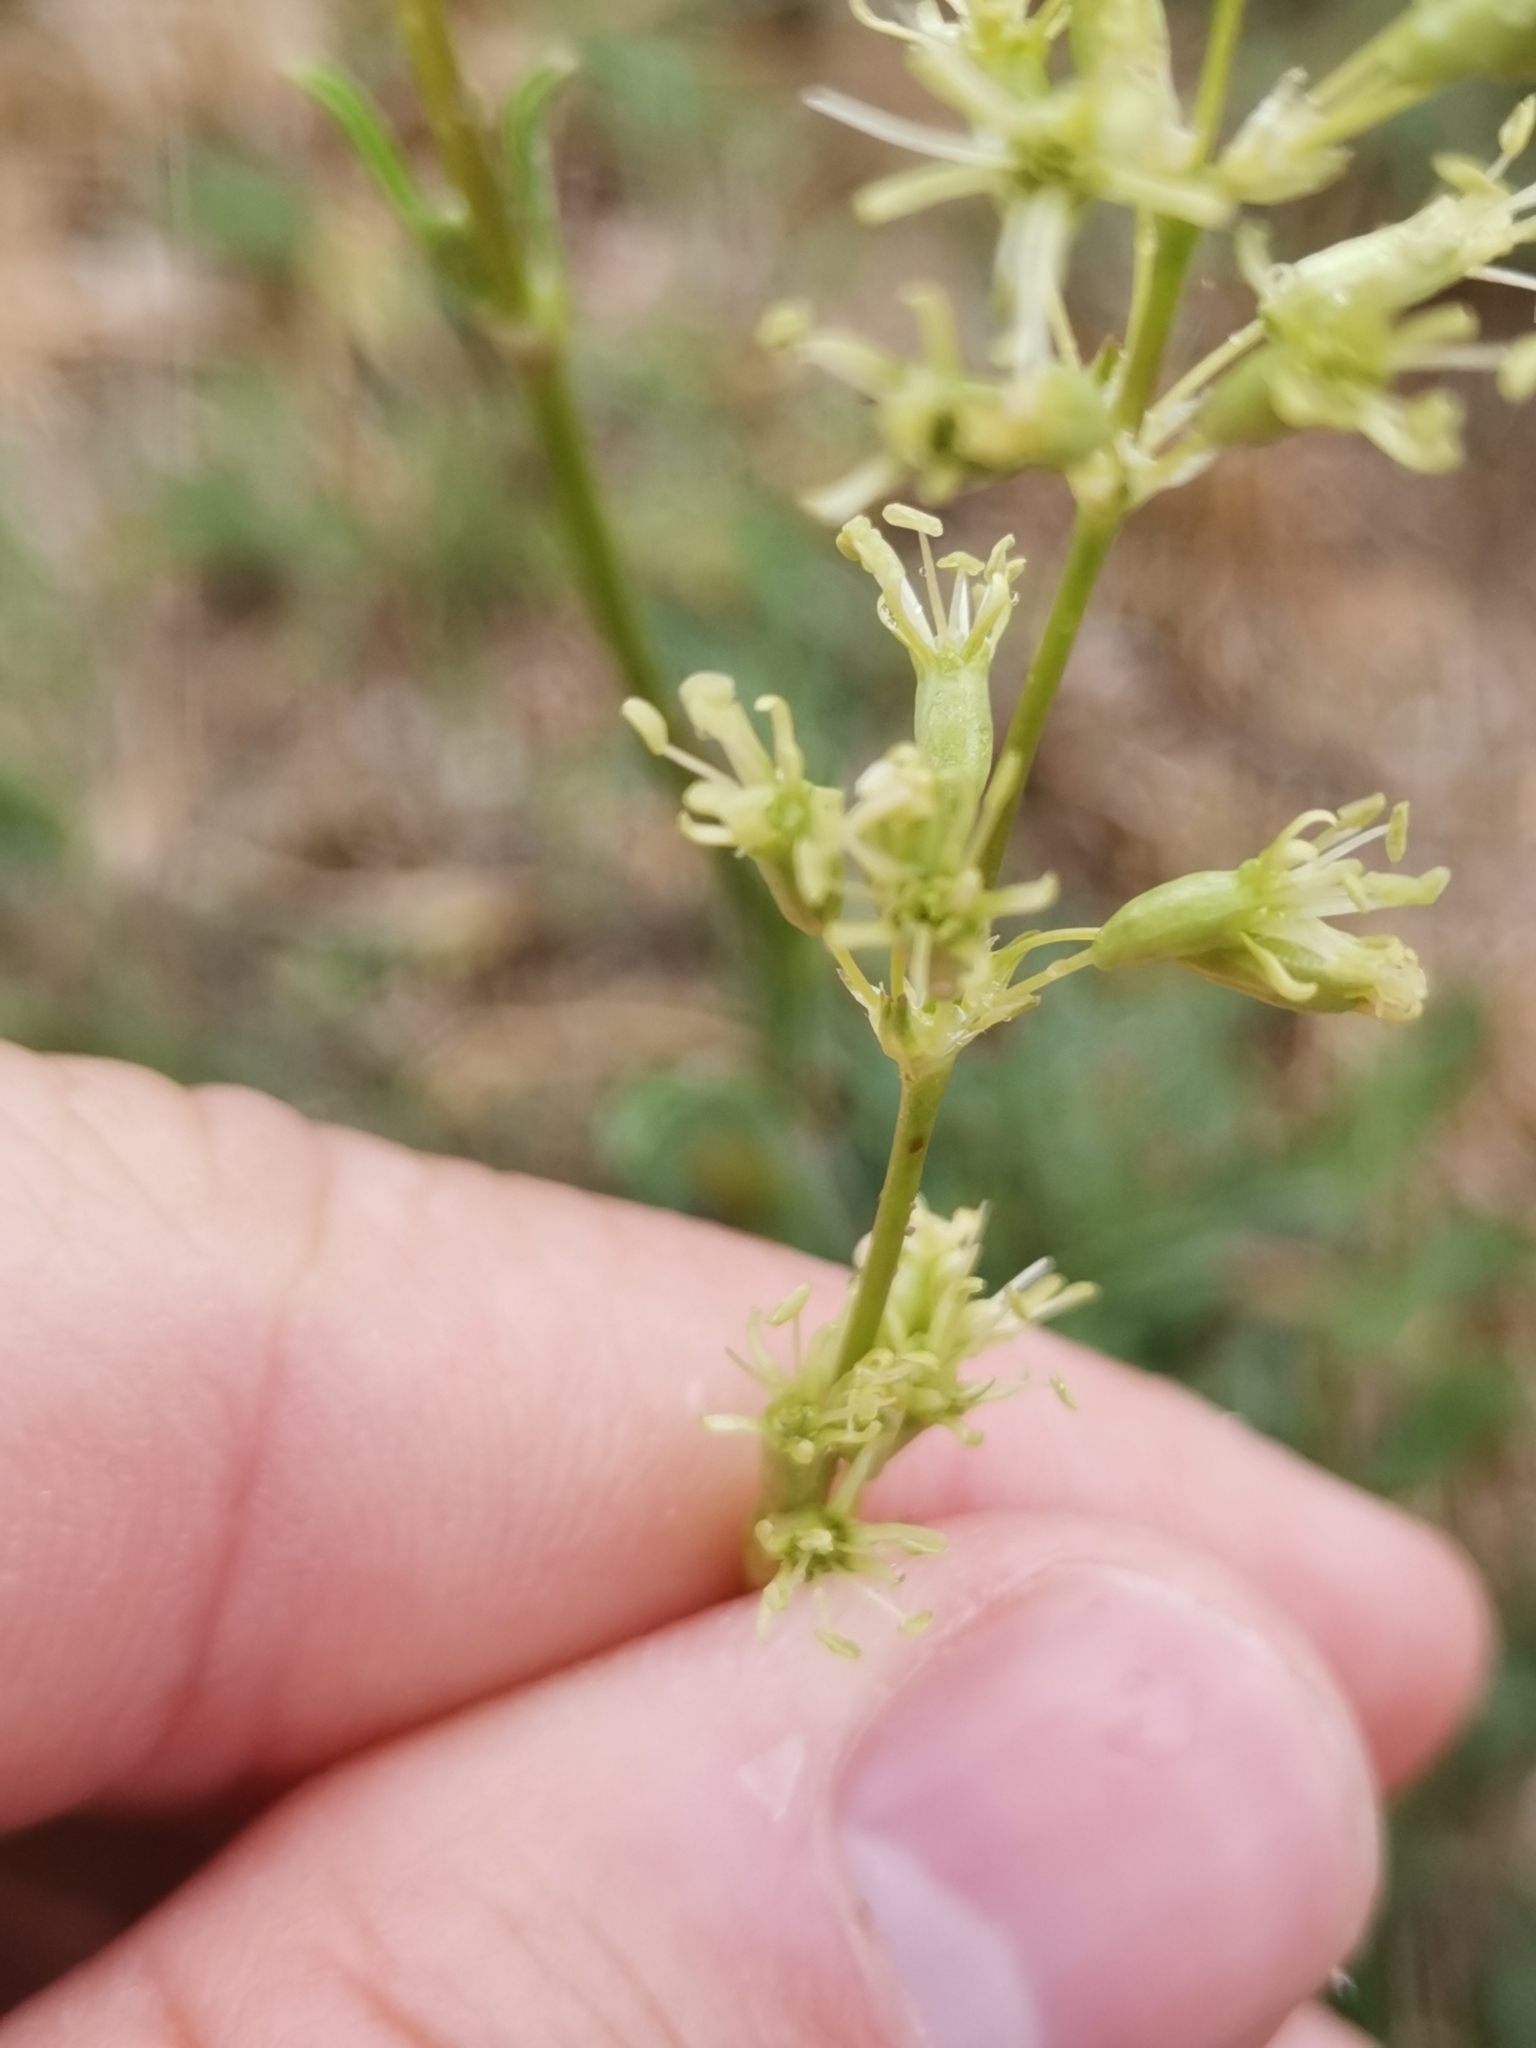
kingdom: Plantae
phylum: Tracheophyta
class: Magnoliopsida
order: Caryophyllales
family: Caryophyllaceae
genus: Silene
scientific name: Silene otites
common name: Spanish catchfly
